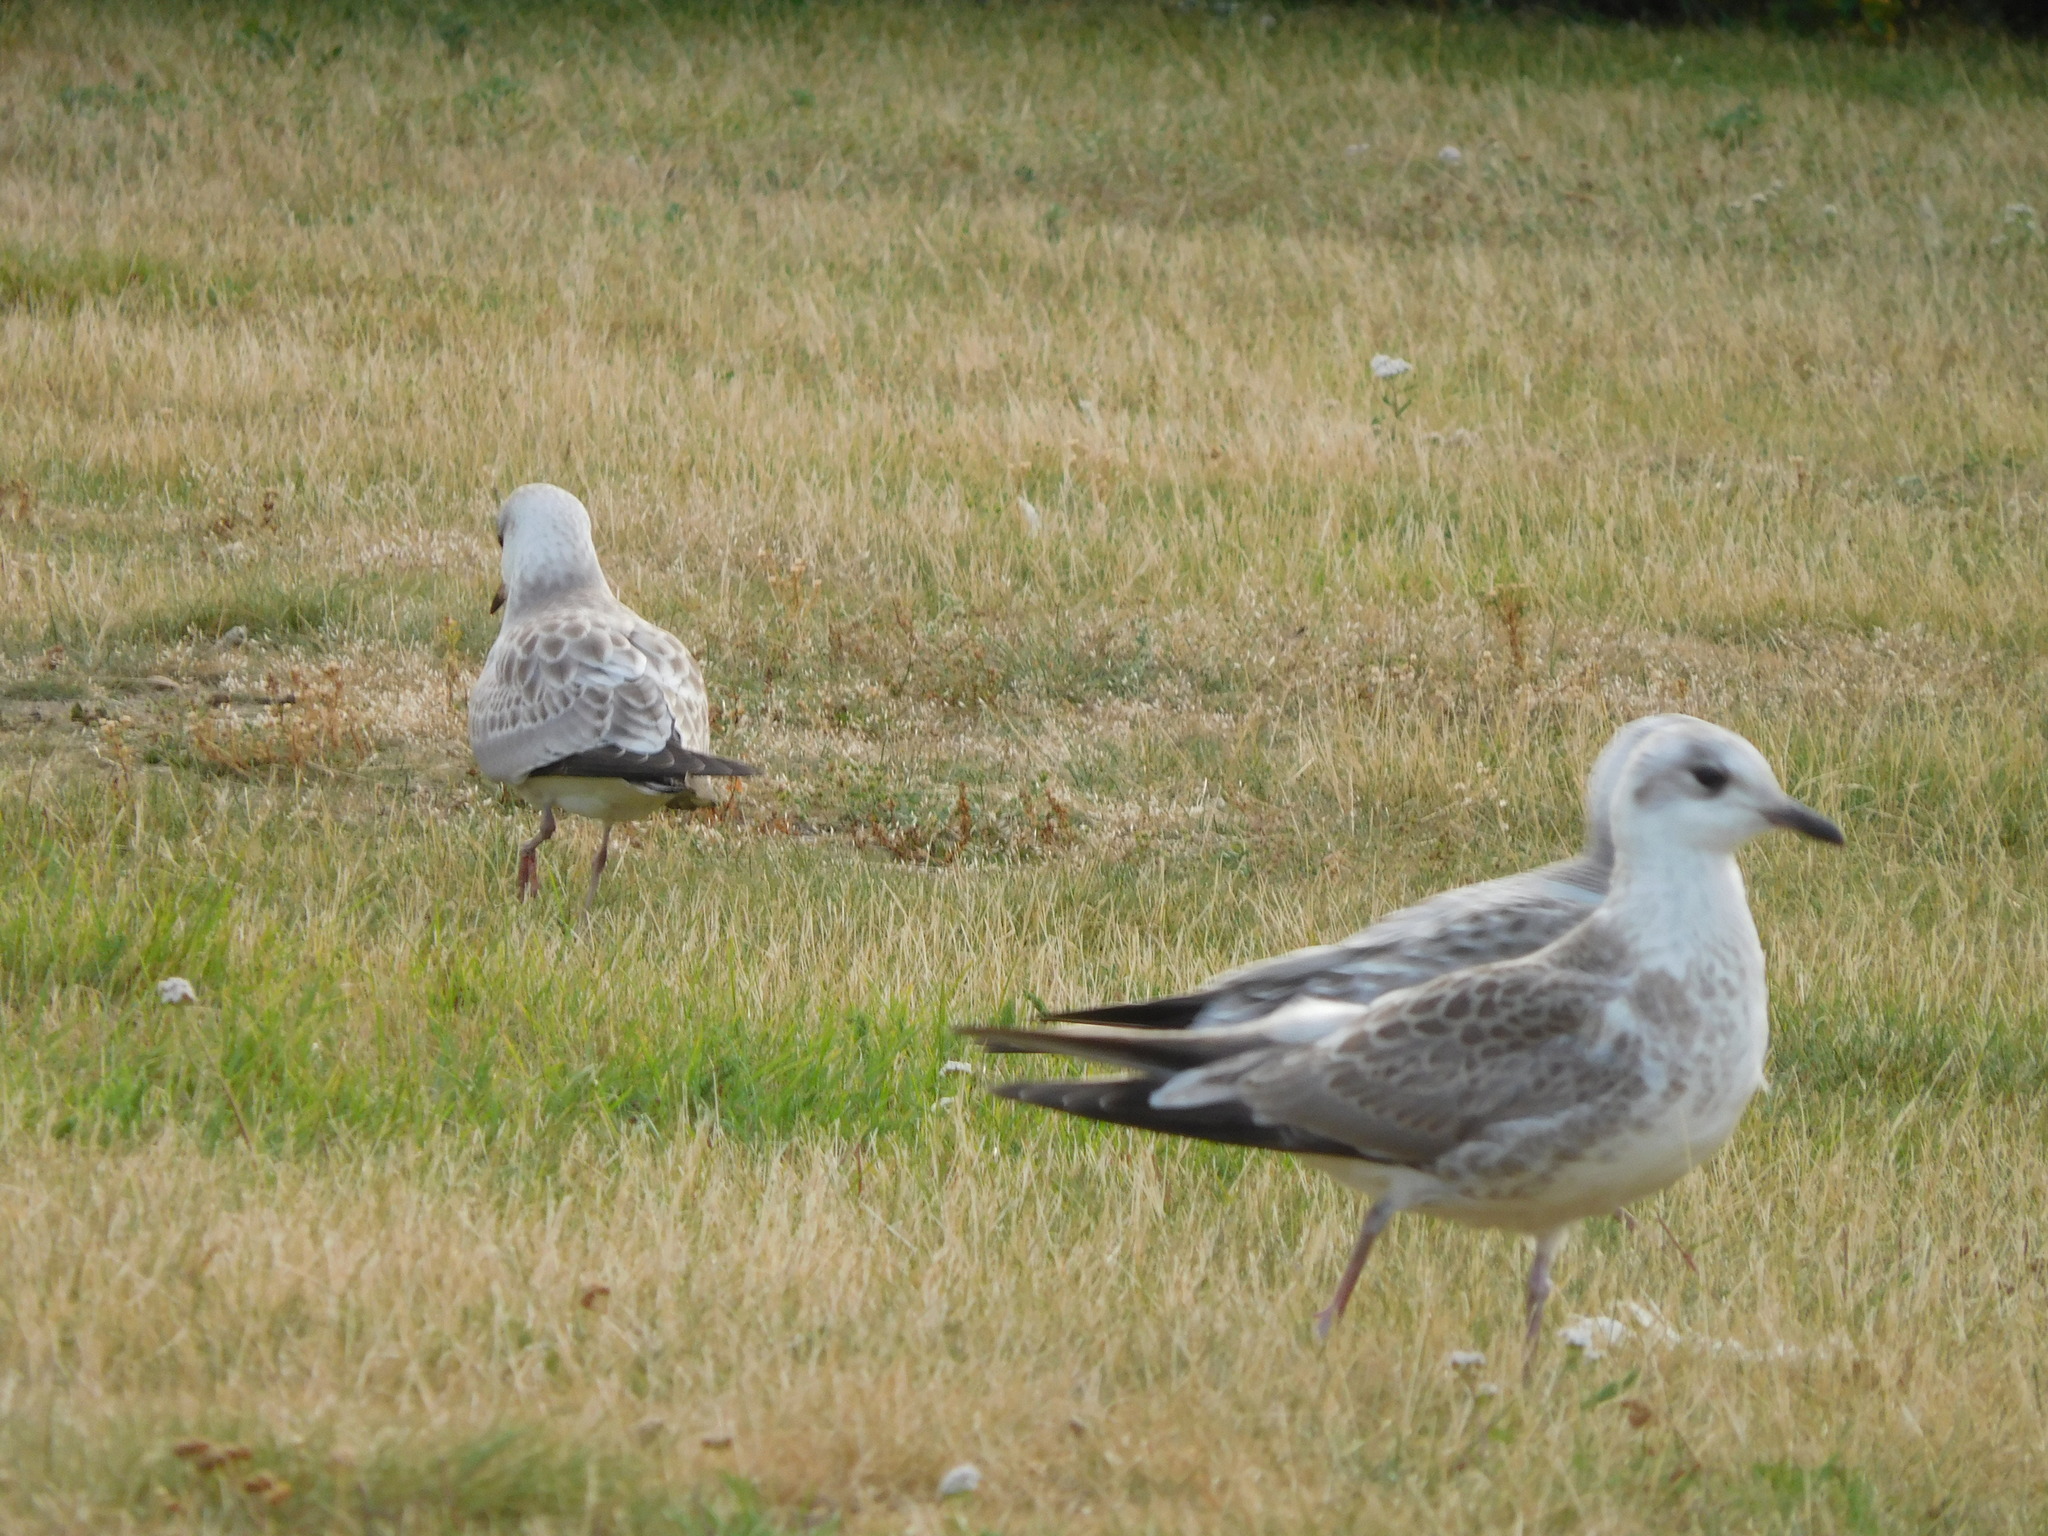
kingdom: Animalia
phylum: Chordata
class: Aves
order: Charadriiformes
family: Laridae
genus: Larus
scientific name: Larus canus
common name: Mew gull
